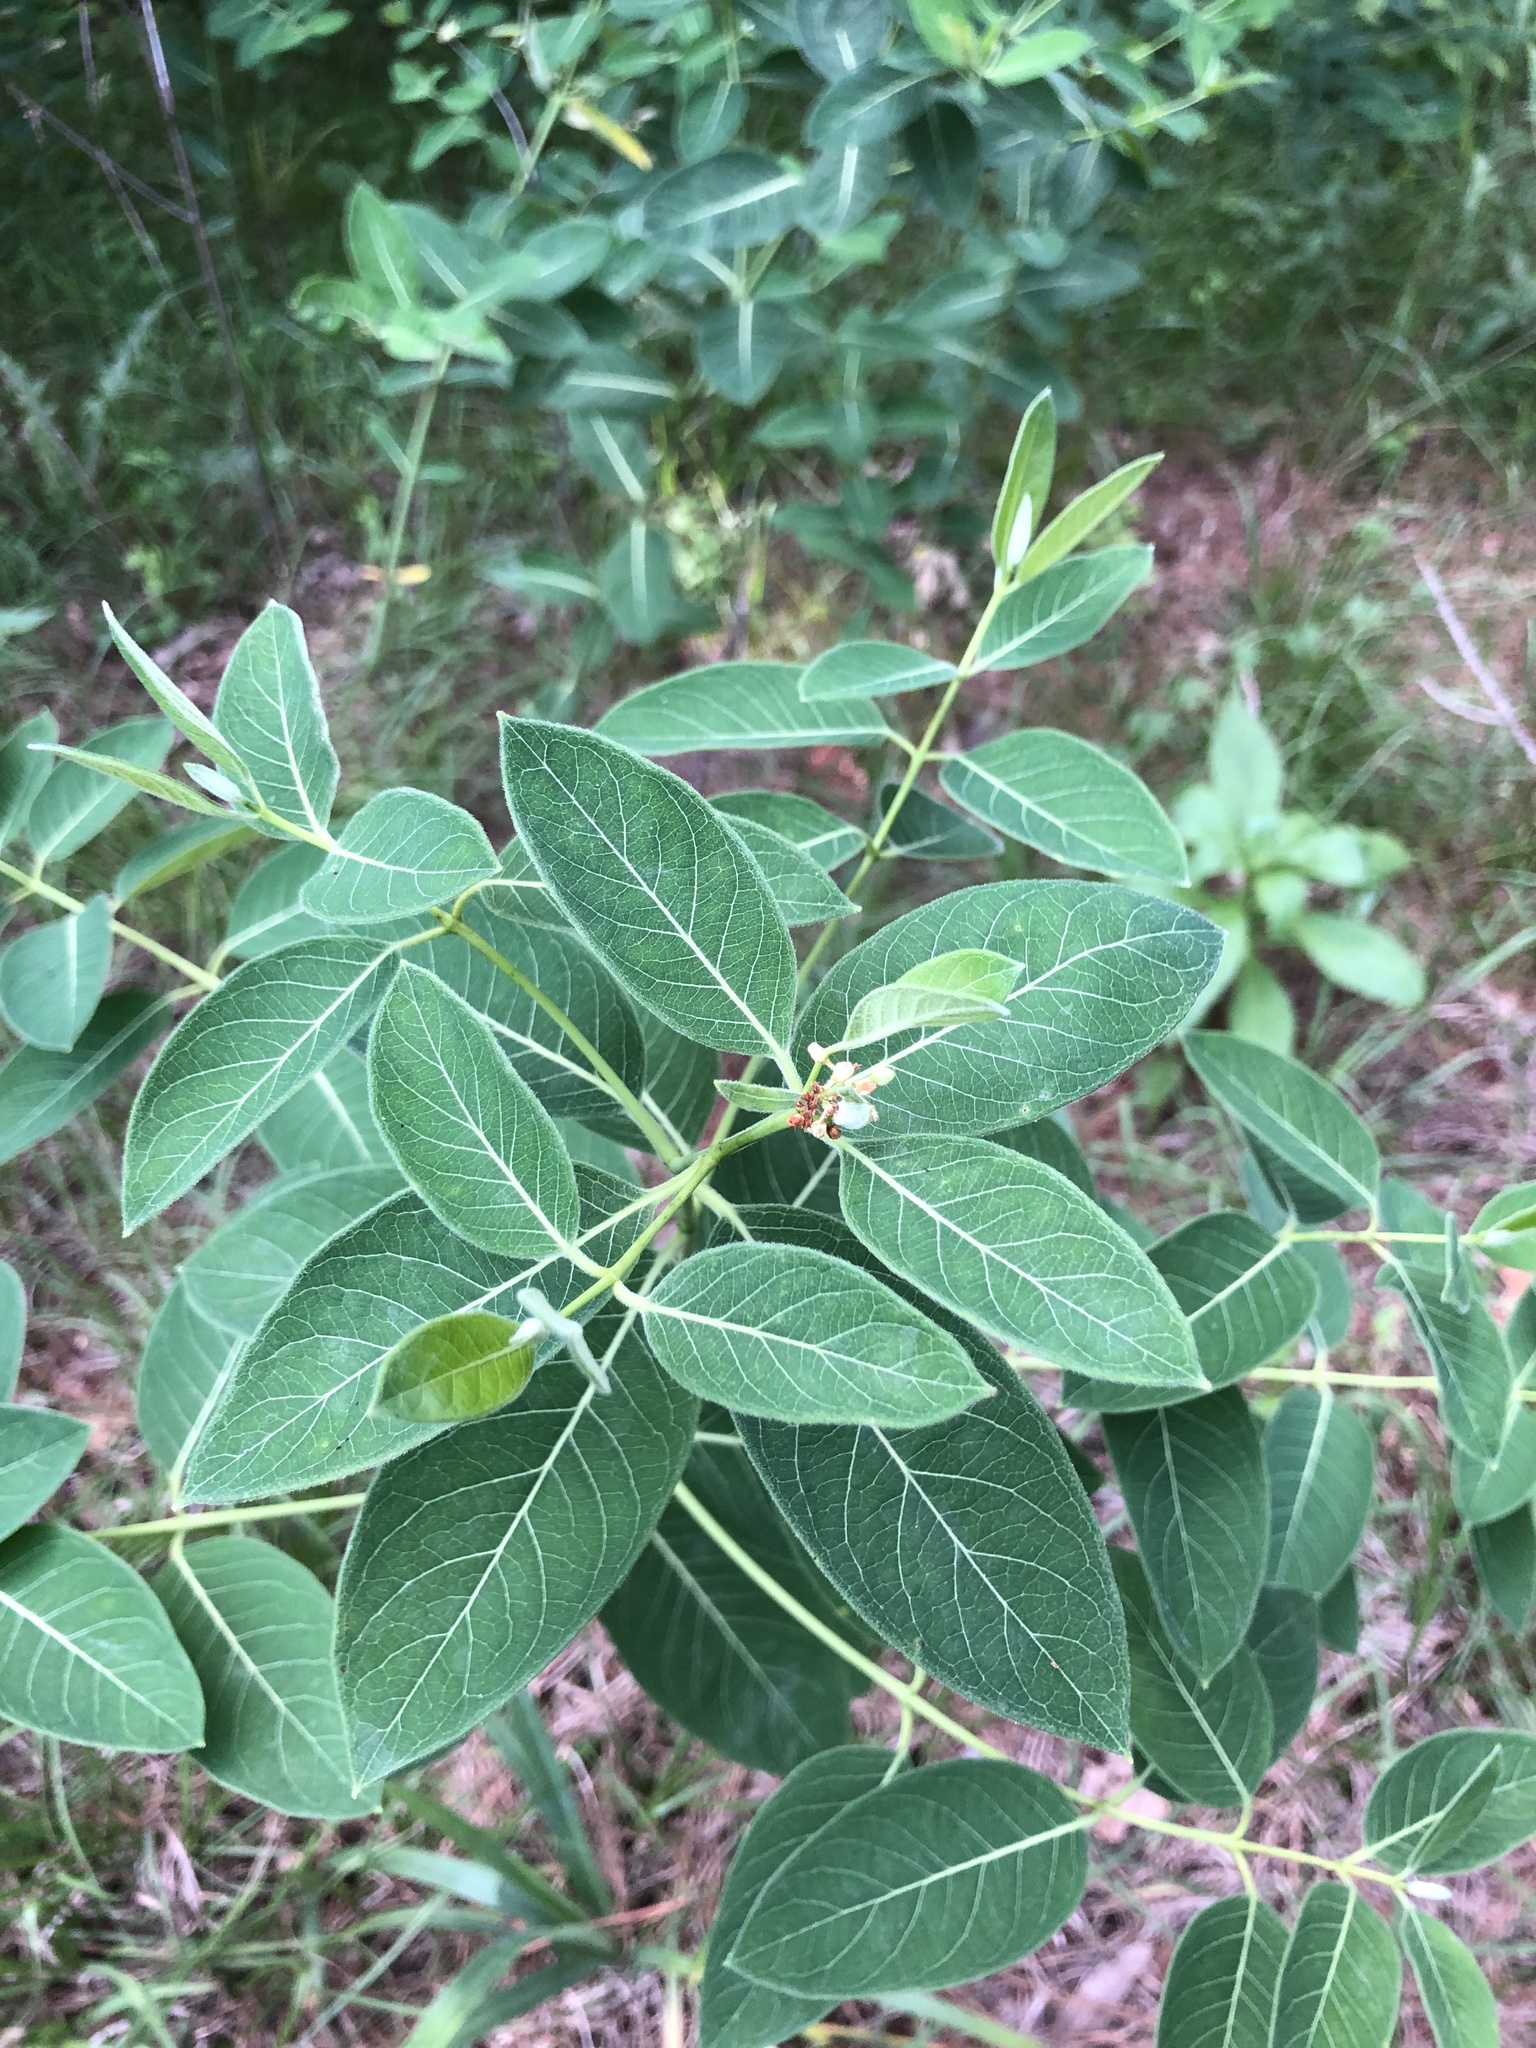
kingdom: Plantae
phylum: Tracheophyta
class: Magnoliopsida
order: Gentianales
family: Apocynaceae
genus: Apocynum
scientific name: Apocynum cannabinum
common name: Hemp dogbane
